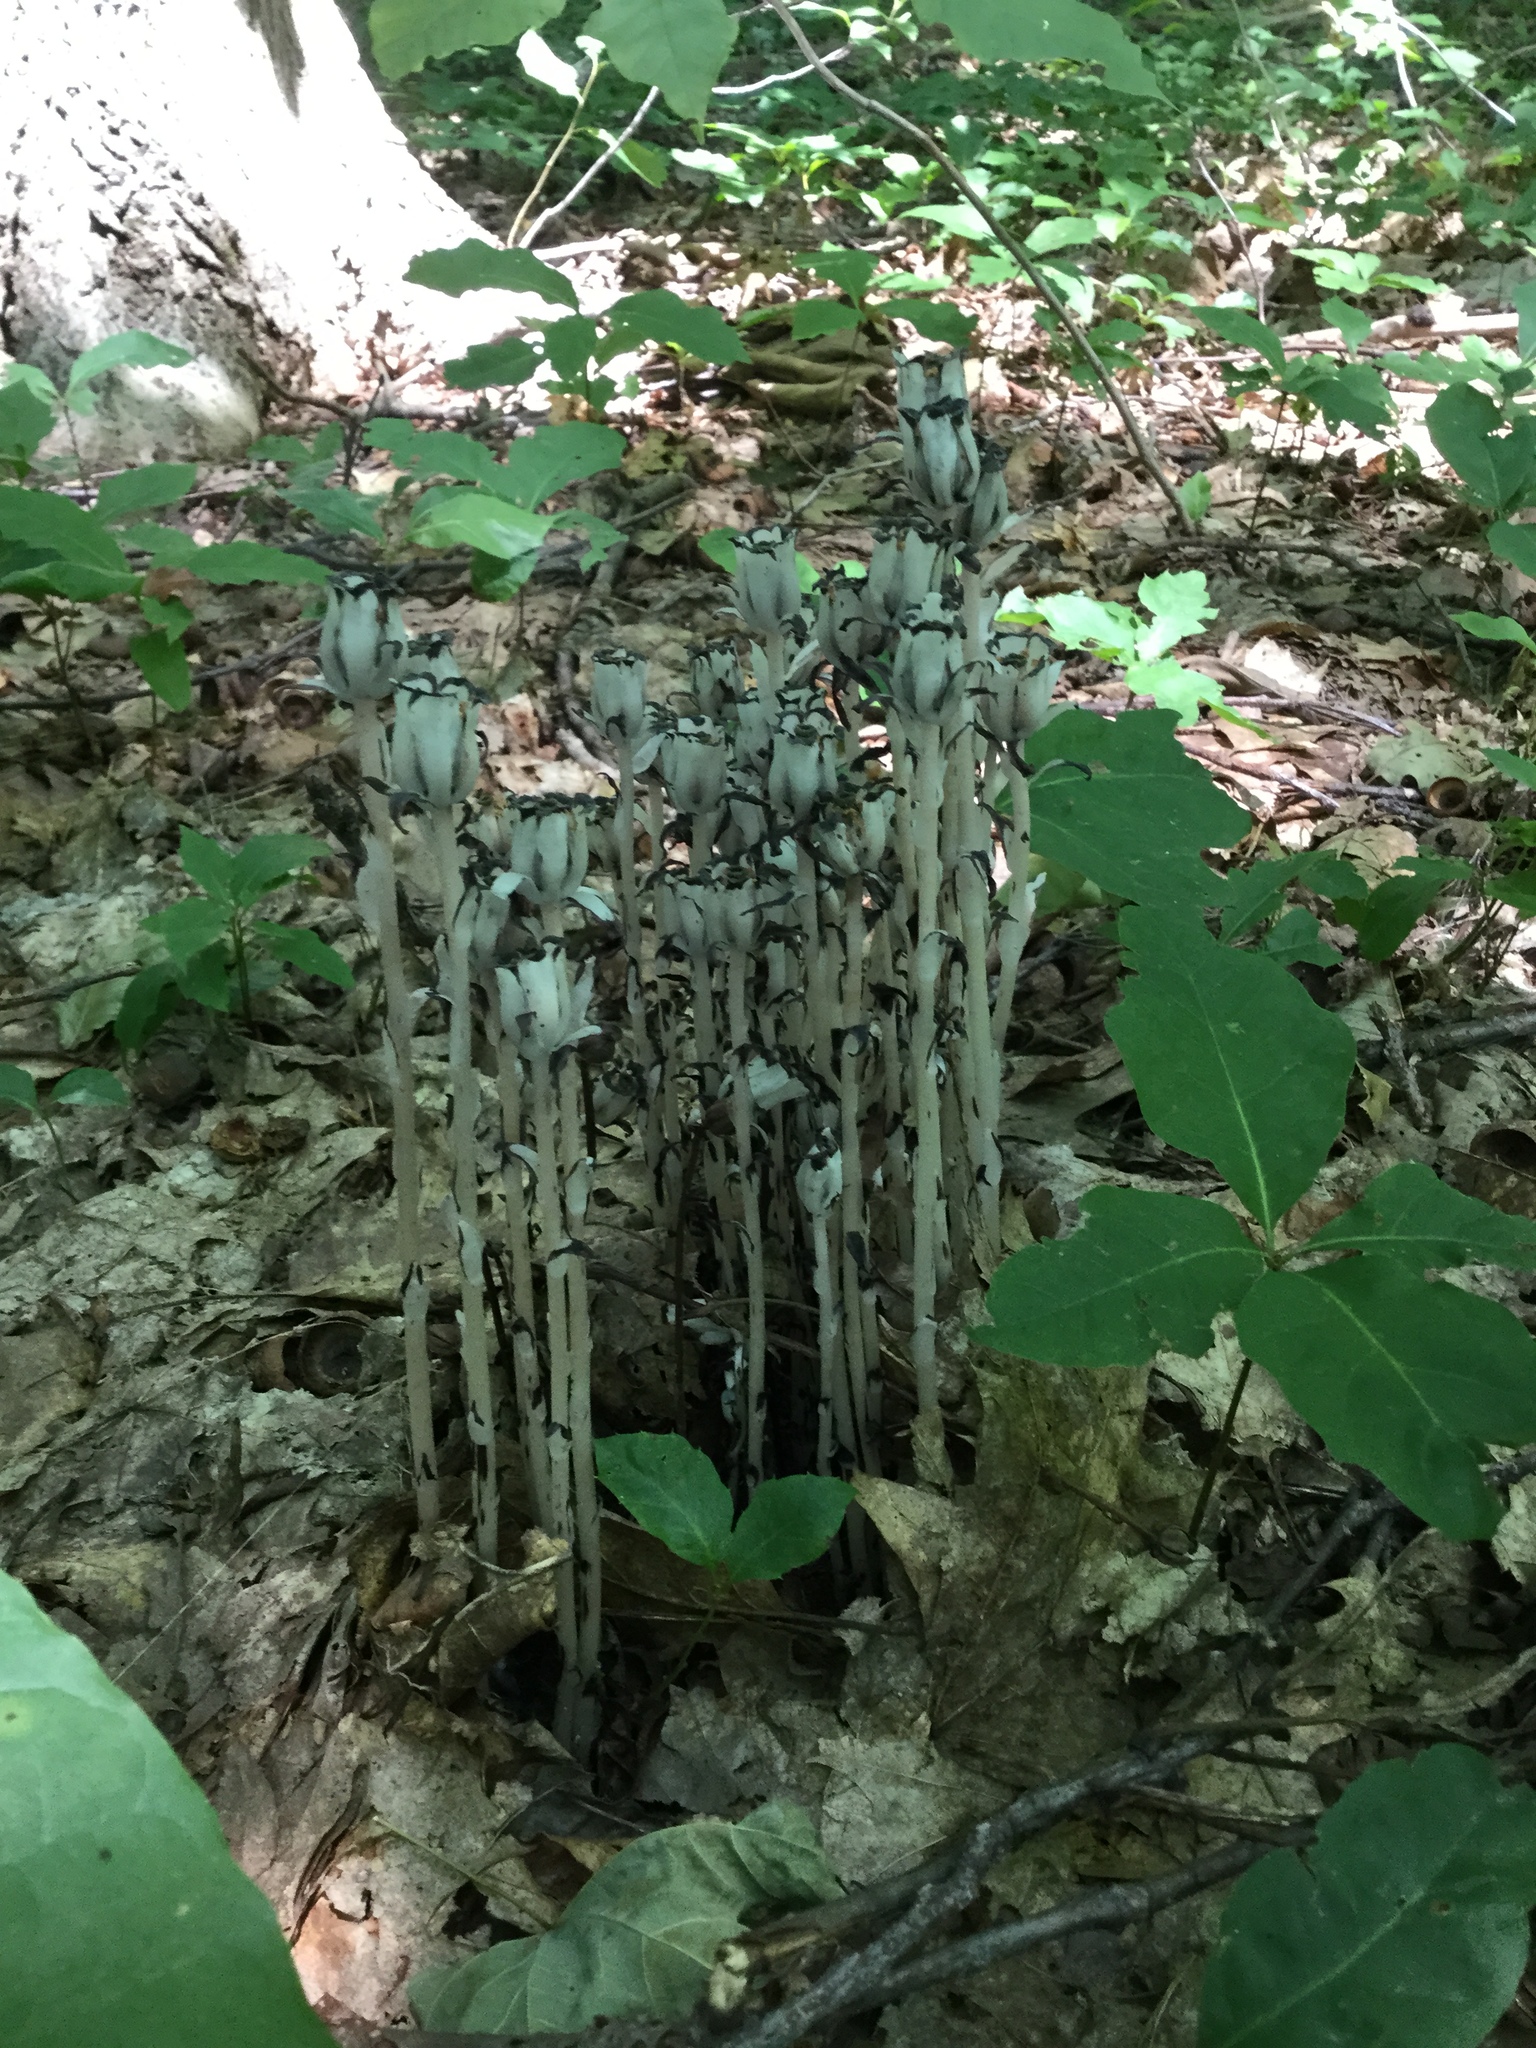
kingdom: Plantae
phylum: Tracheophyta
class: Magnoliopsida
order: Ericales
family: Ericaceae
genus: Monotropa
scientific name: Monotropa uniflora
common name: Convulsion root
